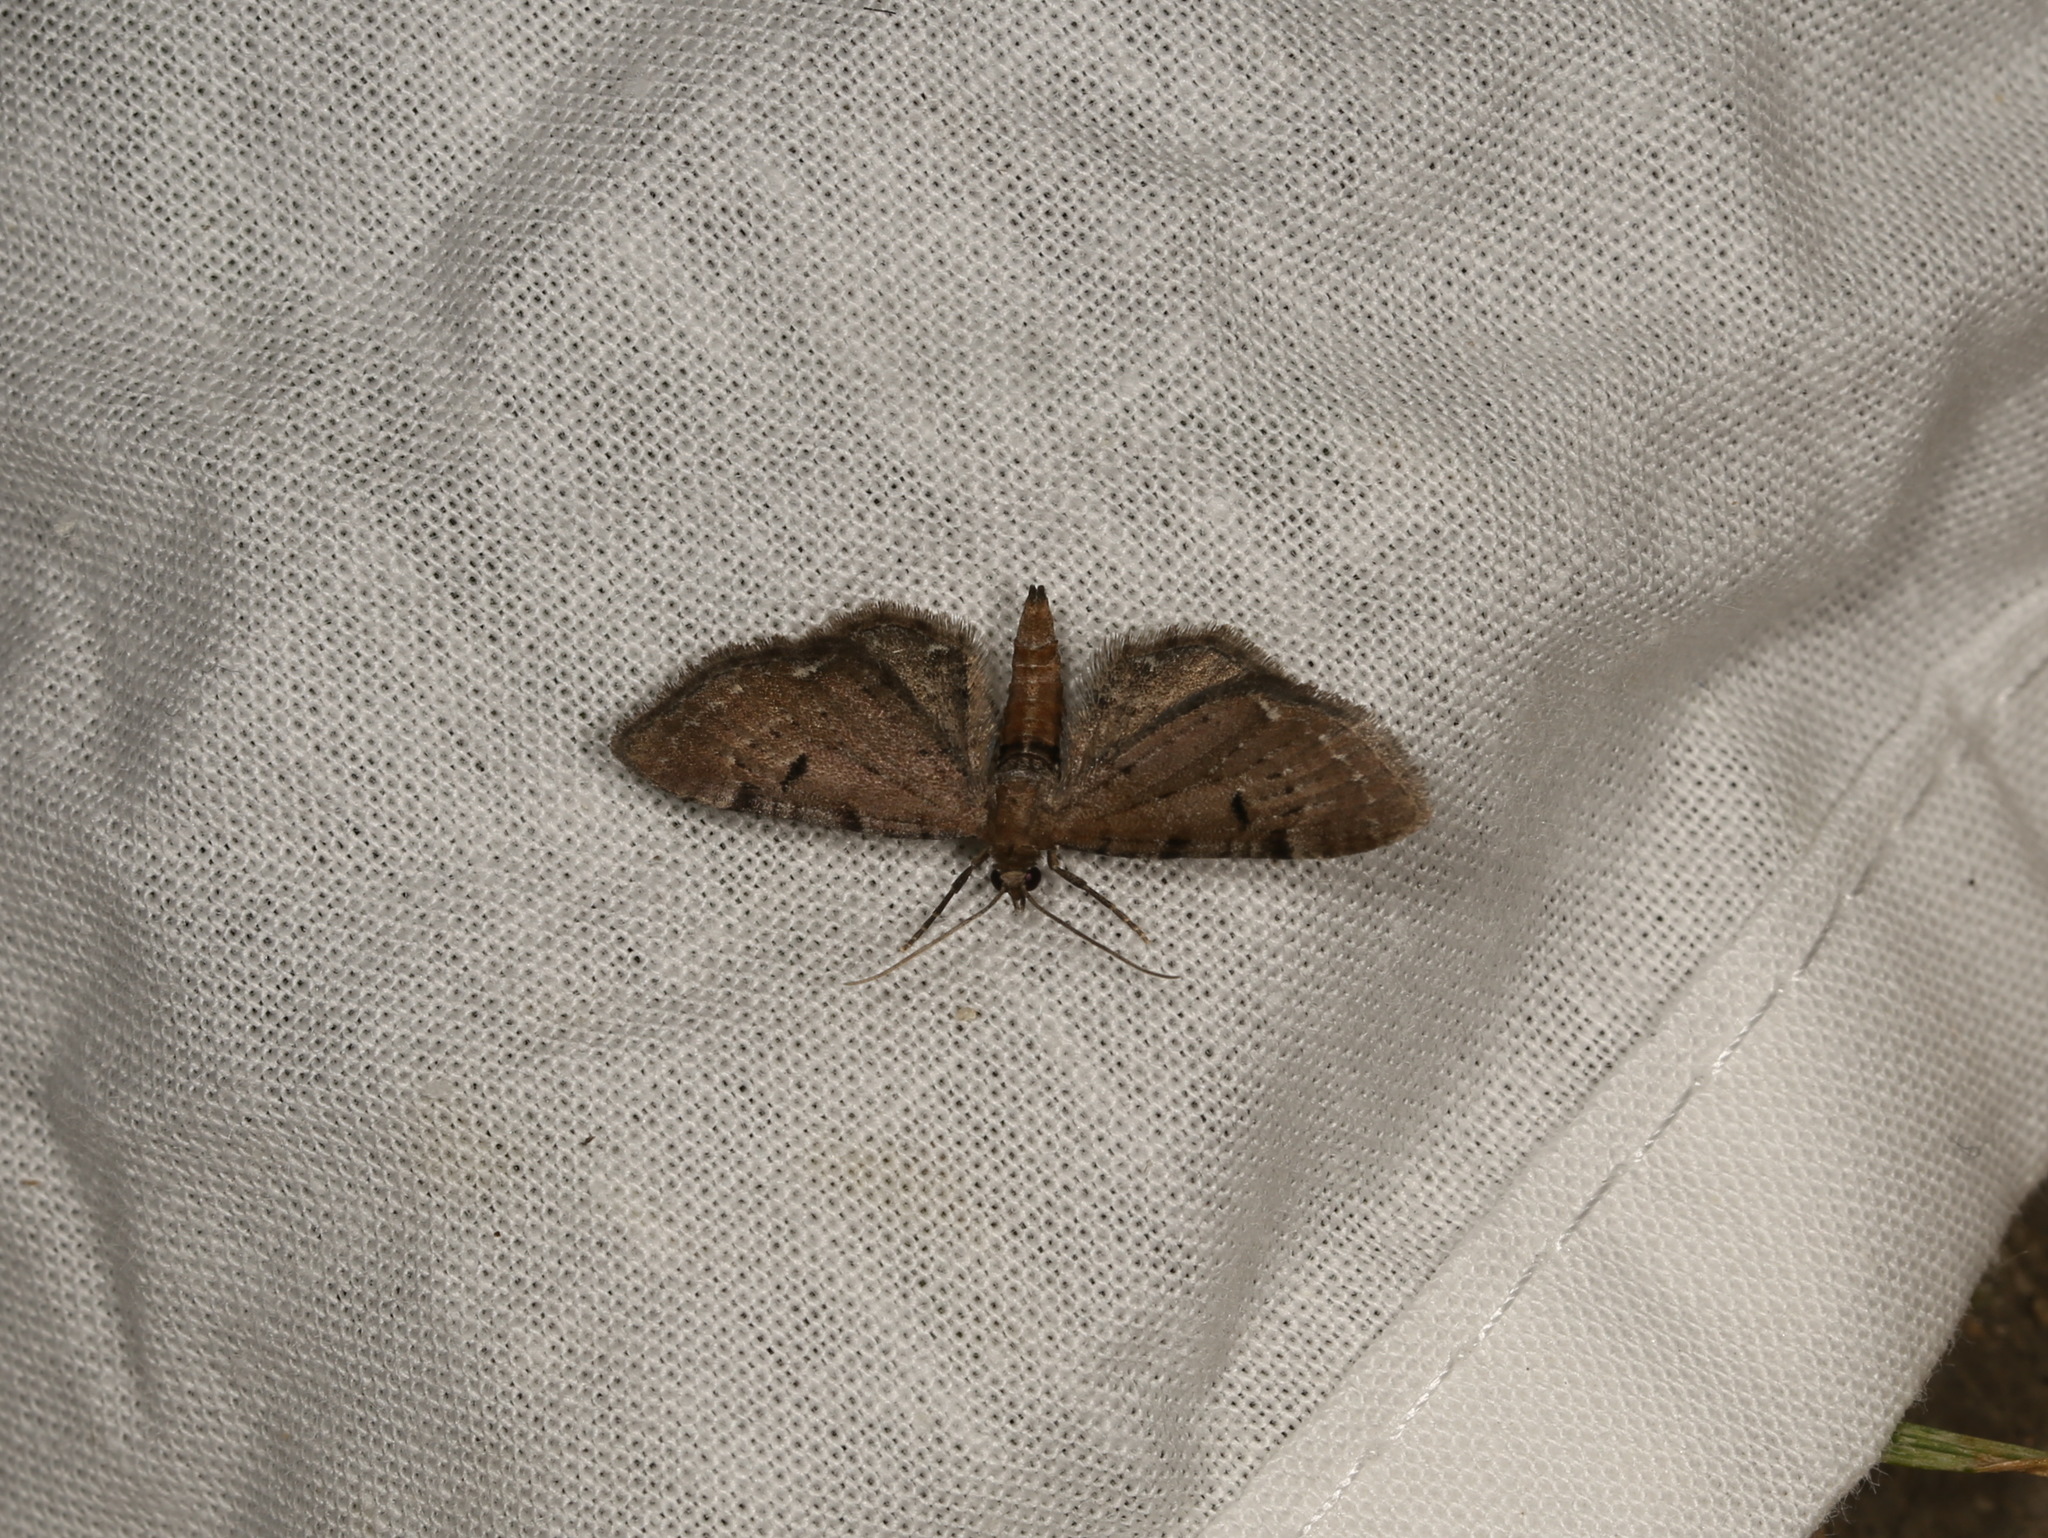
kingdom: Animalia
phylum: Arthropoda
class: Insecta
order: Lepidoptera
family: Geometridae
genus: Eupithecia
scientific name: Eupithecia absinthiata
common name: Wormwood pug
